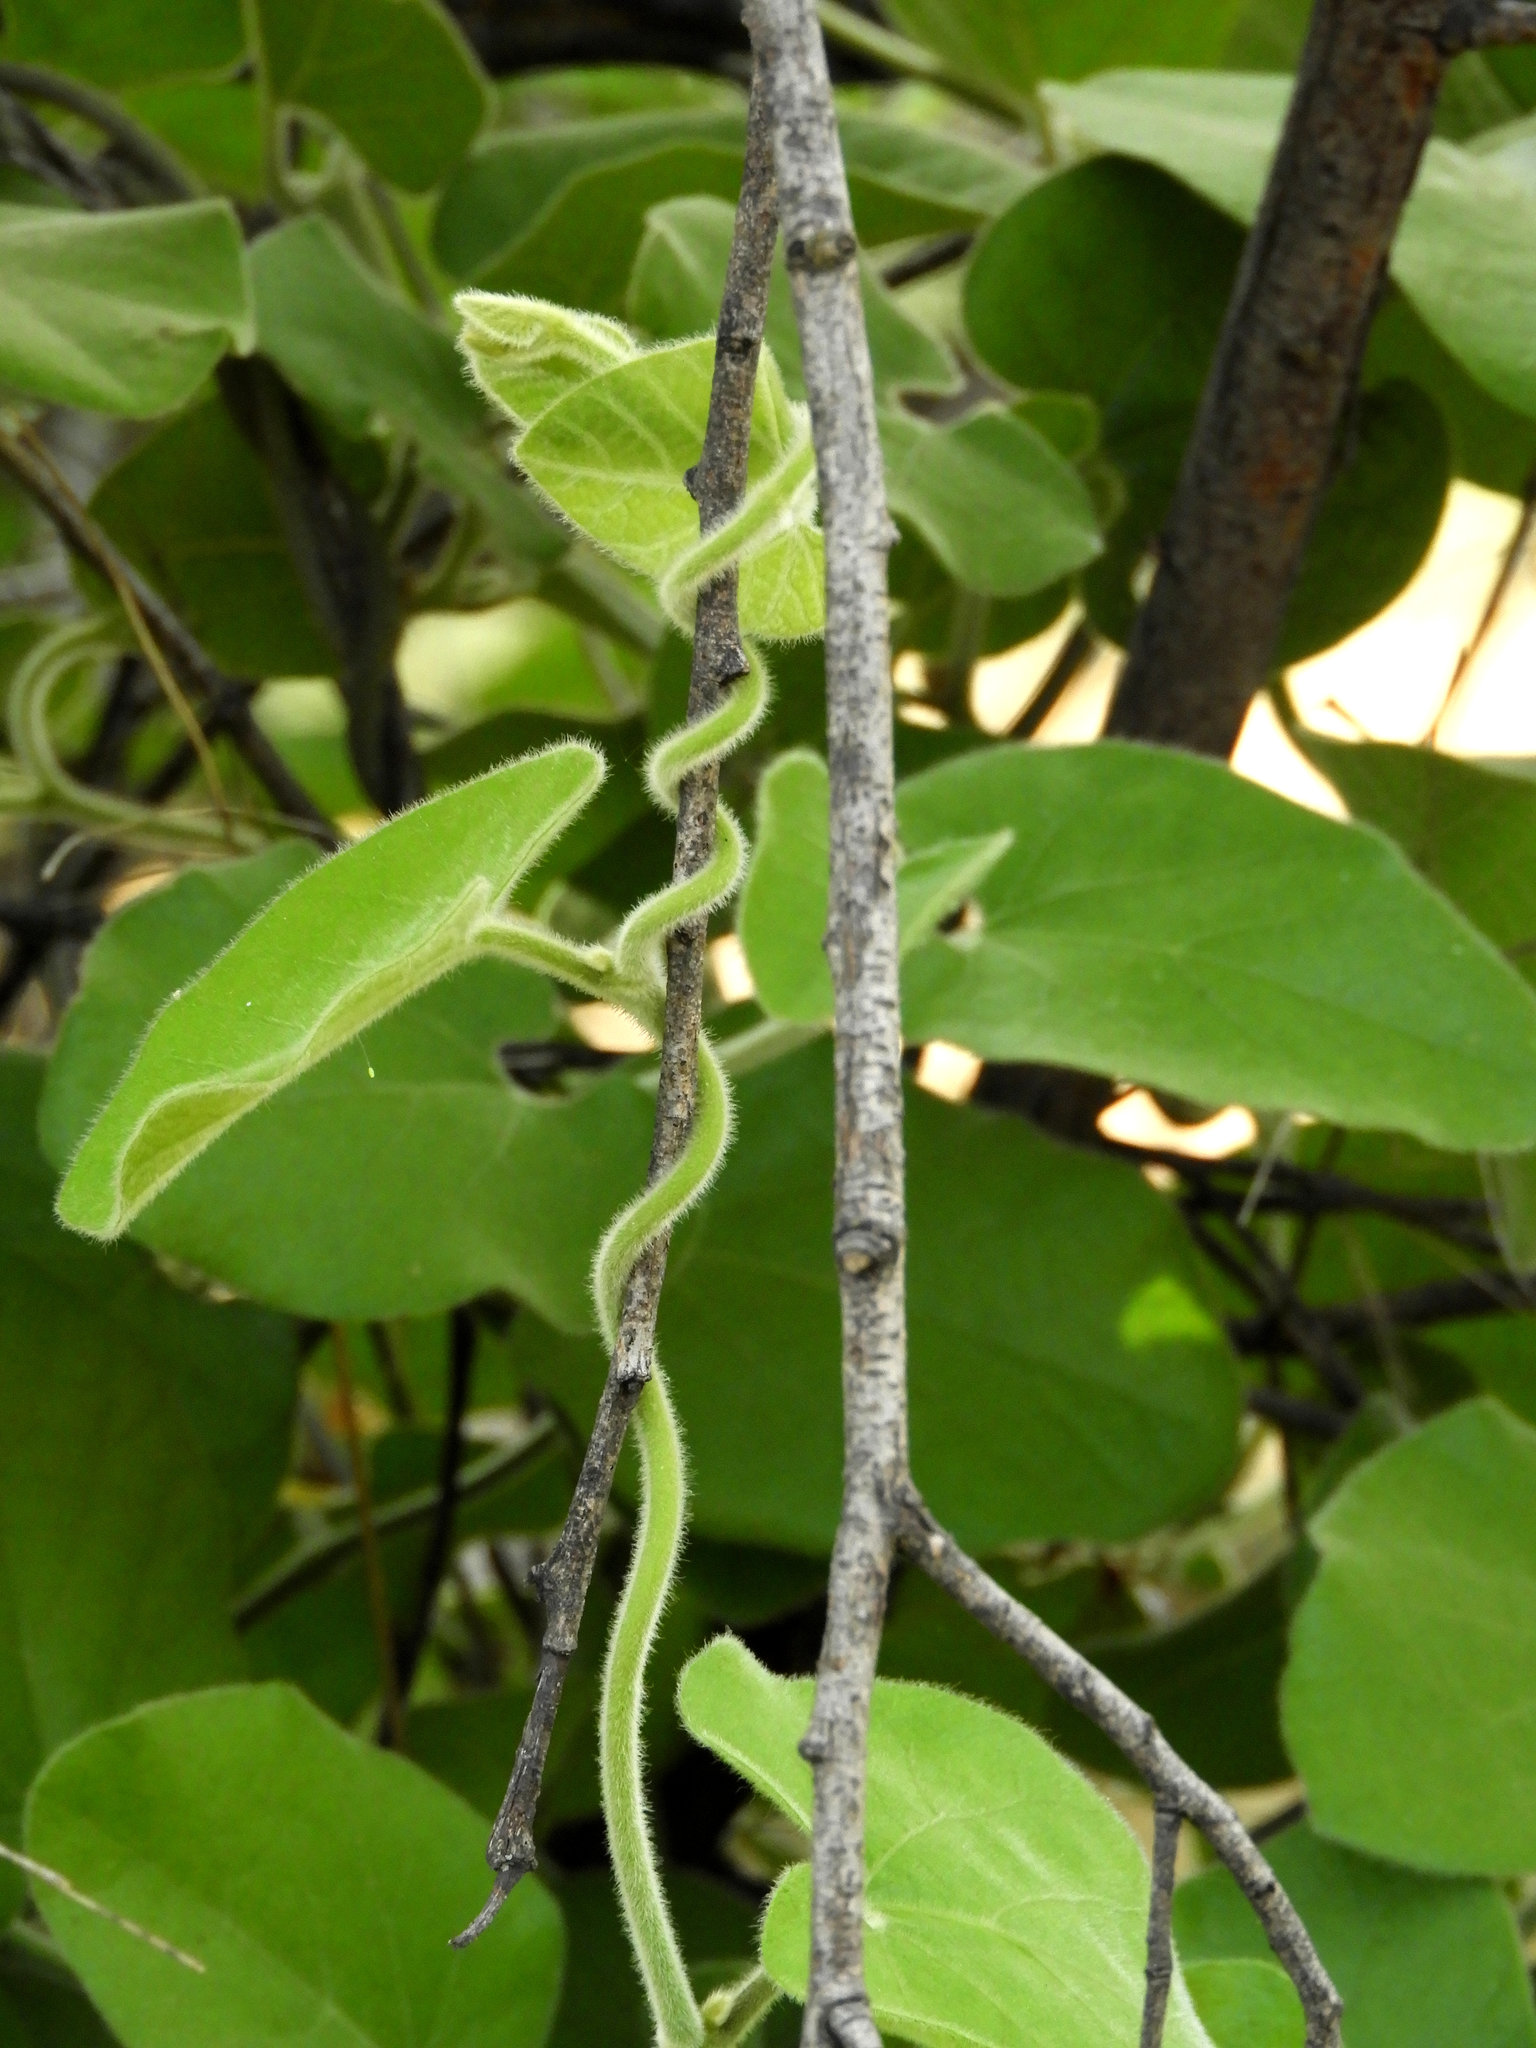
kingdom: Plantae
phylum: Tracheophyta
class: Magnoliopsida
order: Piperales
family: Aristolochiaceae
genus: Isotrema
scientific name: Isotrema californicum
